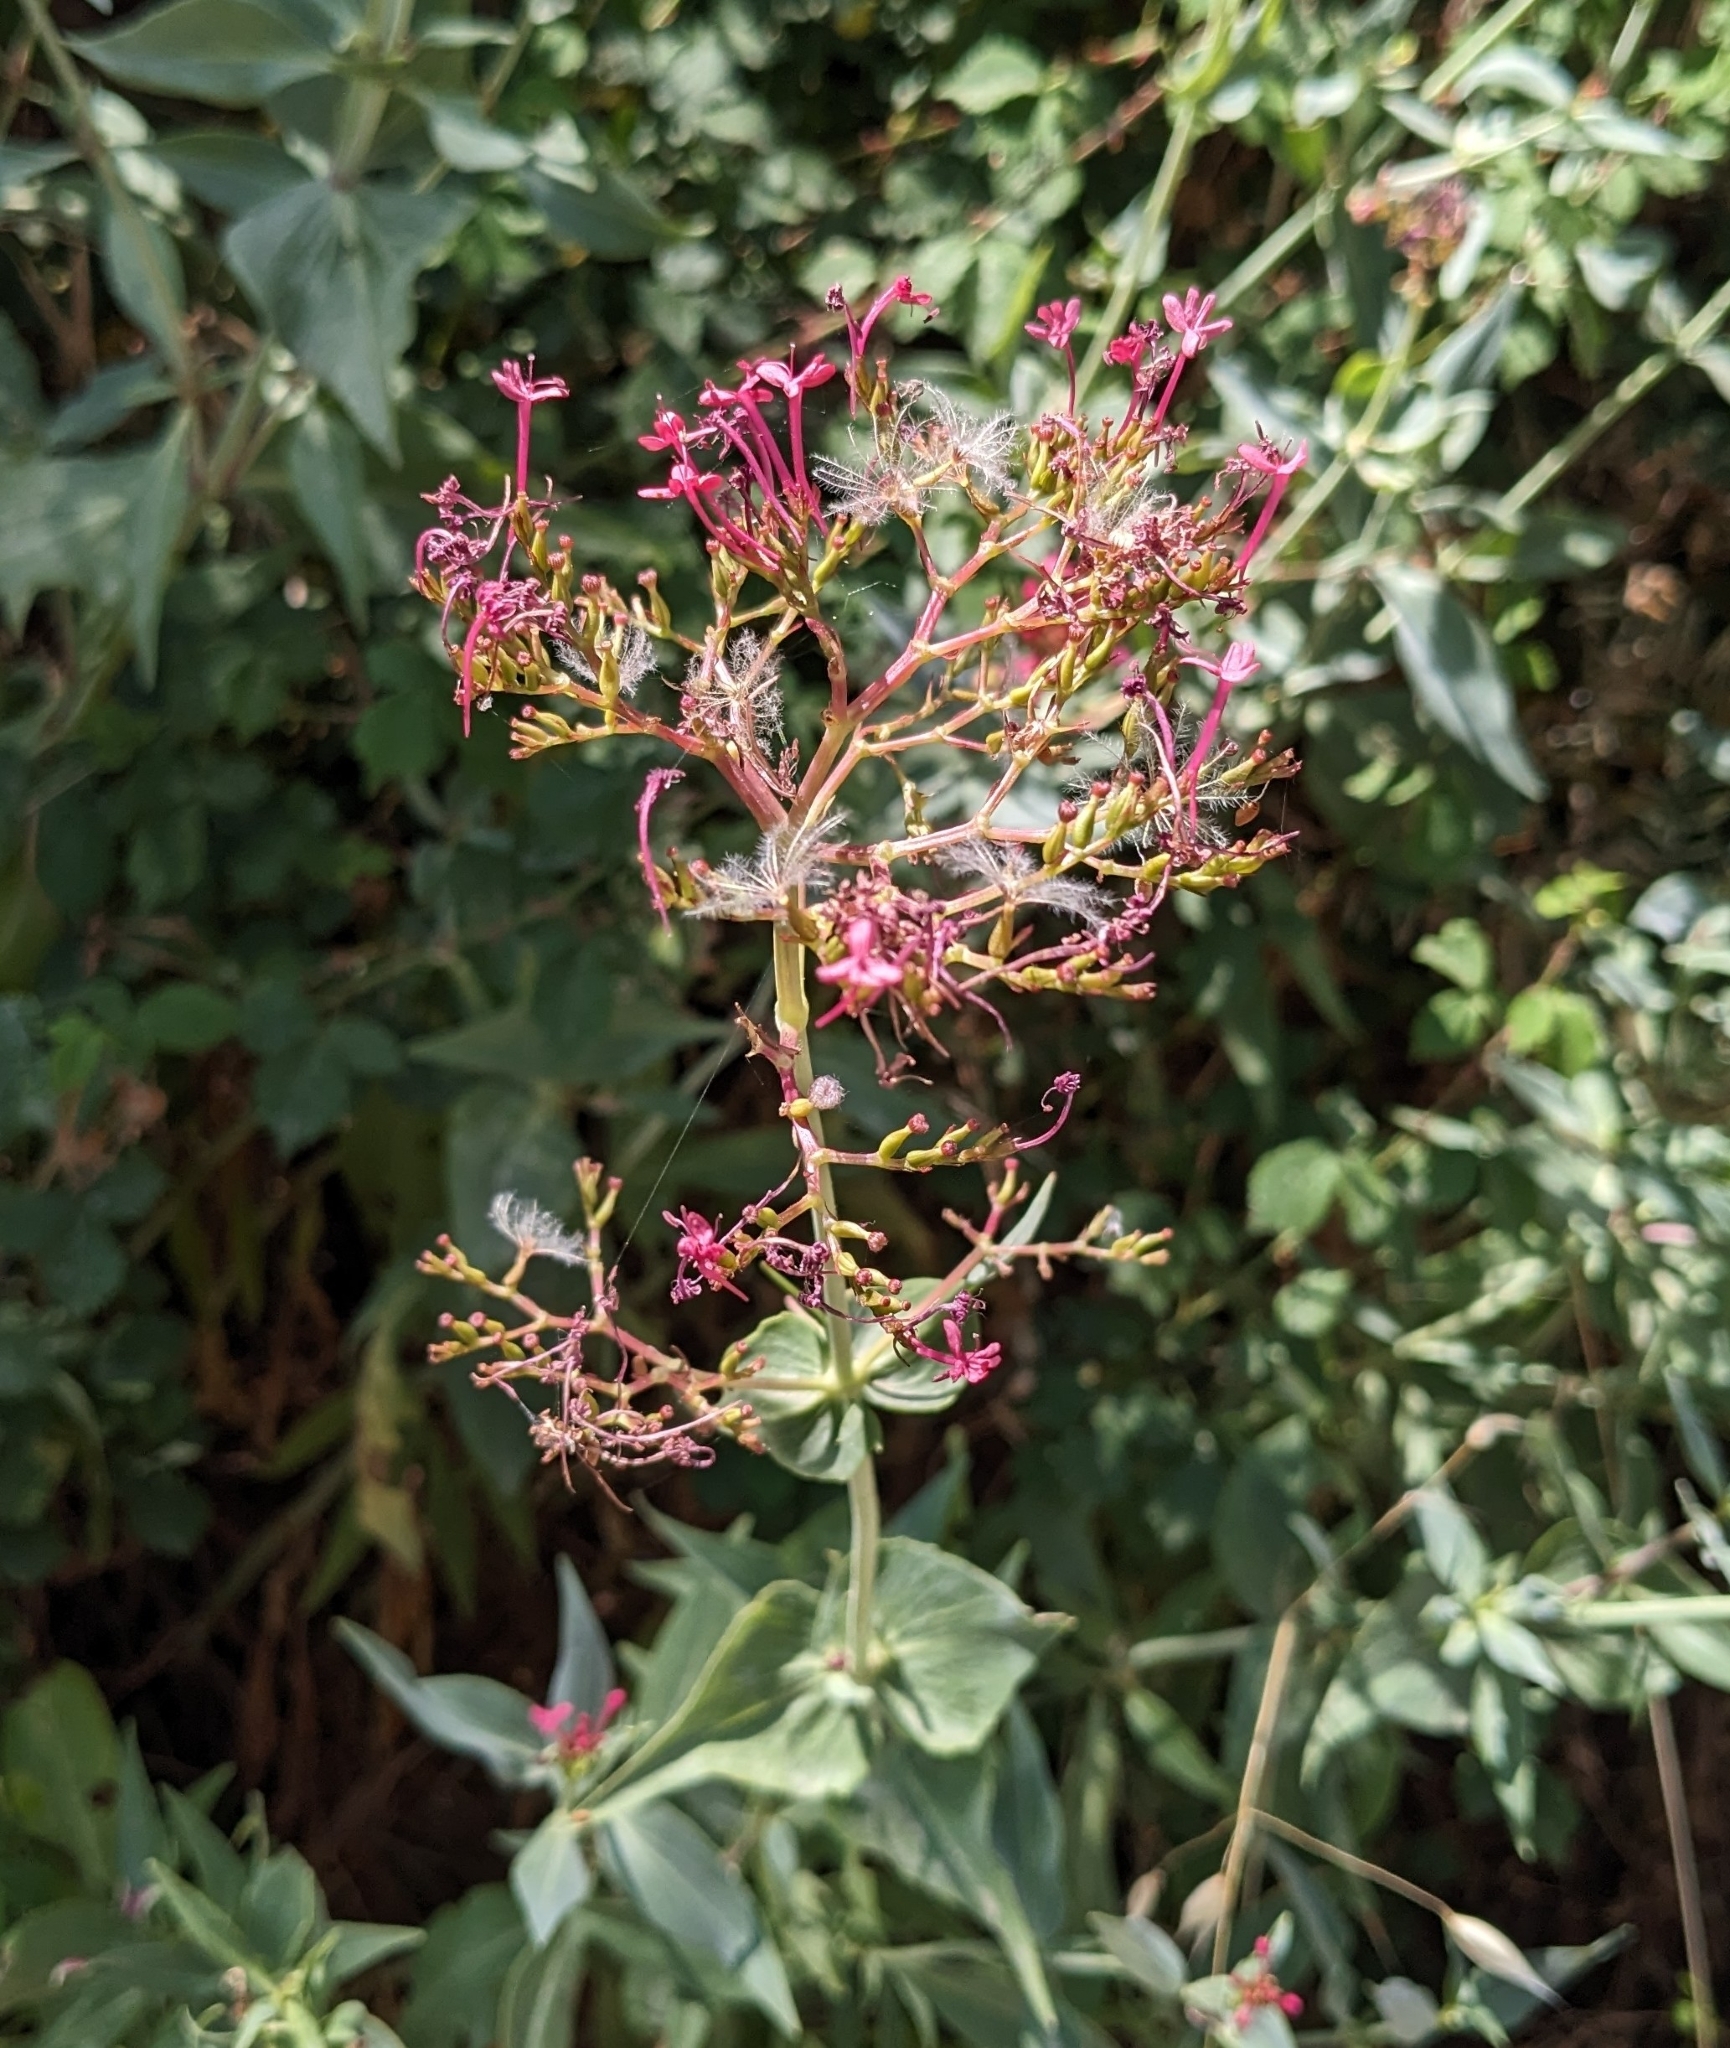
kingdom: Plantae
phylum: Tracheophyta
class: Magnoliopsida
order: Dipsacales
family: Caprifoliaceae
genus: Centranthus
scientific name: Centranthus ruber
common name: Red valerian
